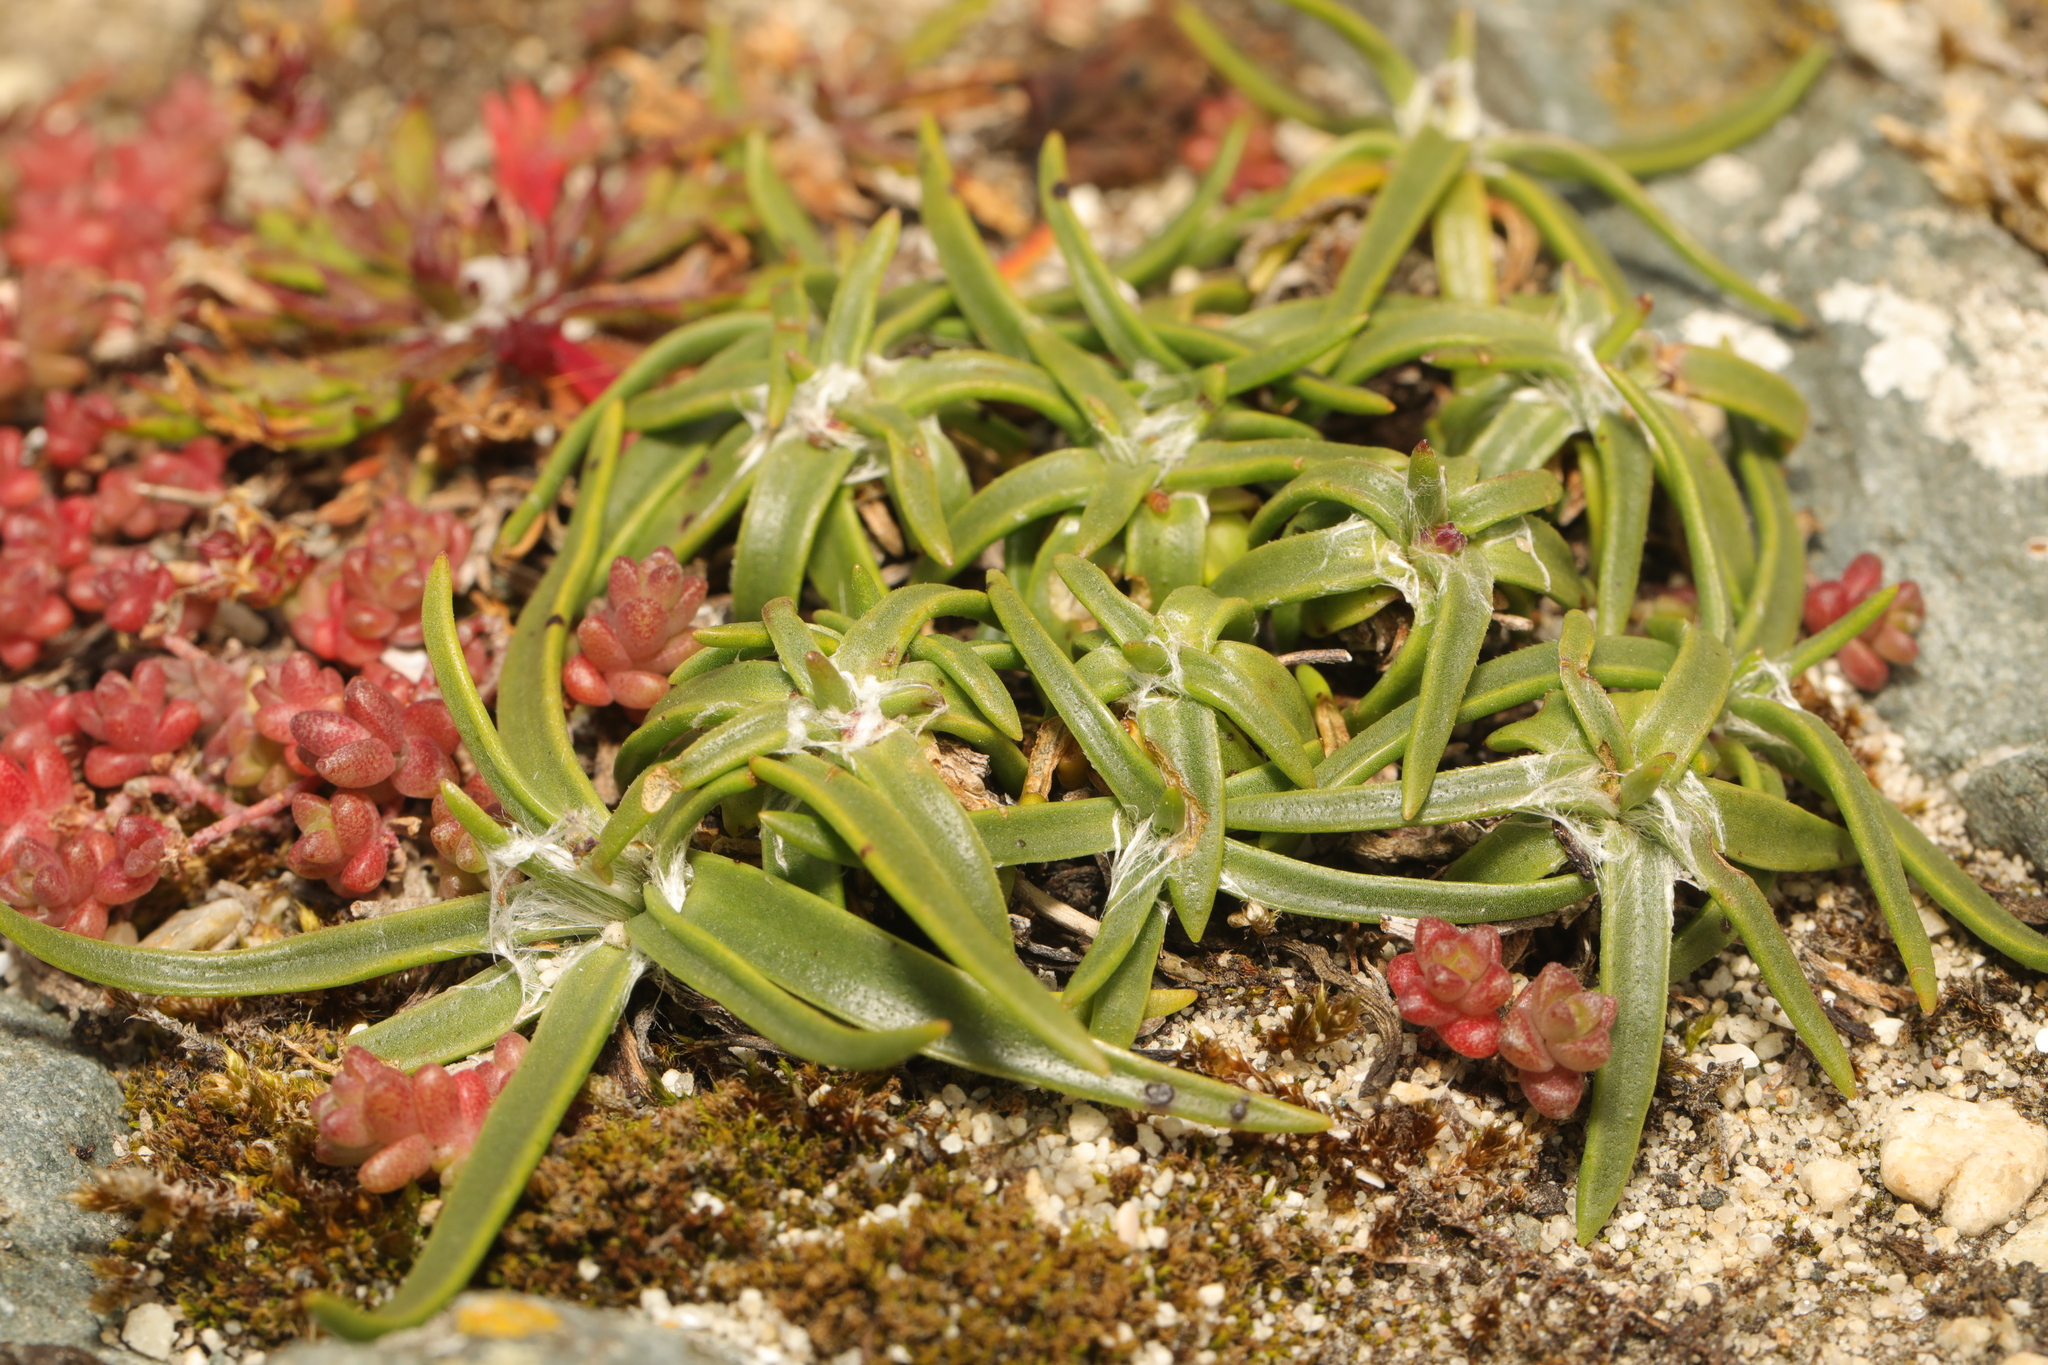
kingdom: Plantae
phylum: Tracheophyta
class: Magnoliopsida
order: Lamiales
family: Plantaginaceae
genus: Plantago
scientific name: Plantago maritima
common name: Sea plantain
